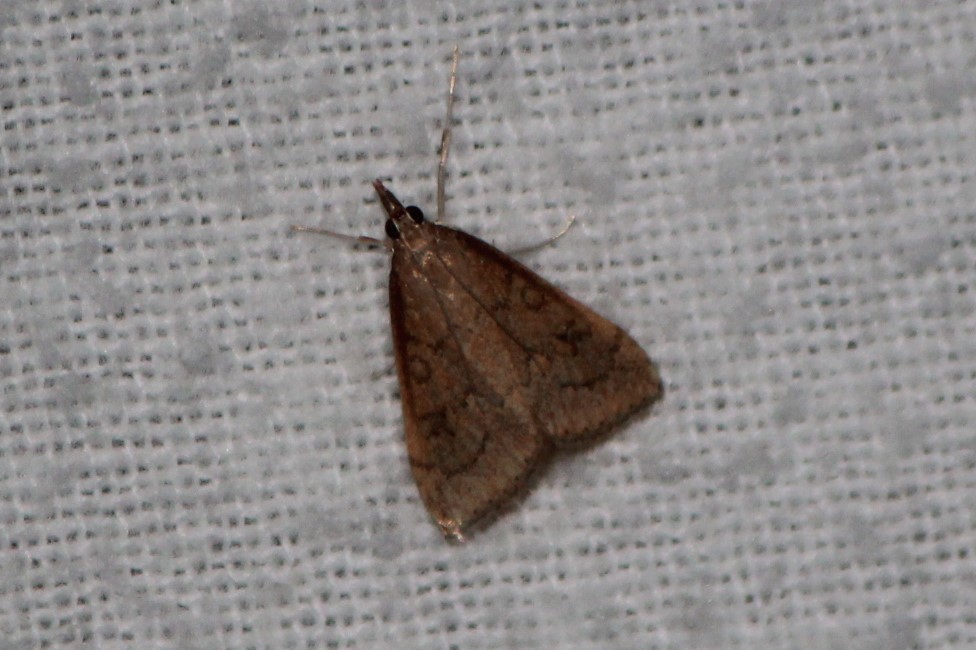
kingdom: Animalia
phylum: Arthropoda
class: Insecta
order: Lepidoptera
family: Crambidae
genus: Udea
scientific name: Udea rubigalis
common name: Celery leaftier moth
